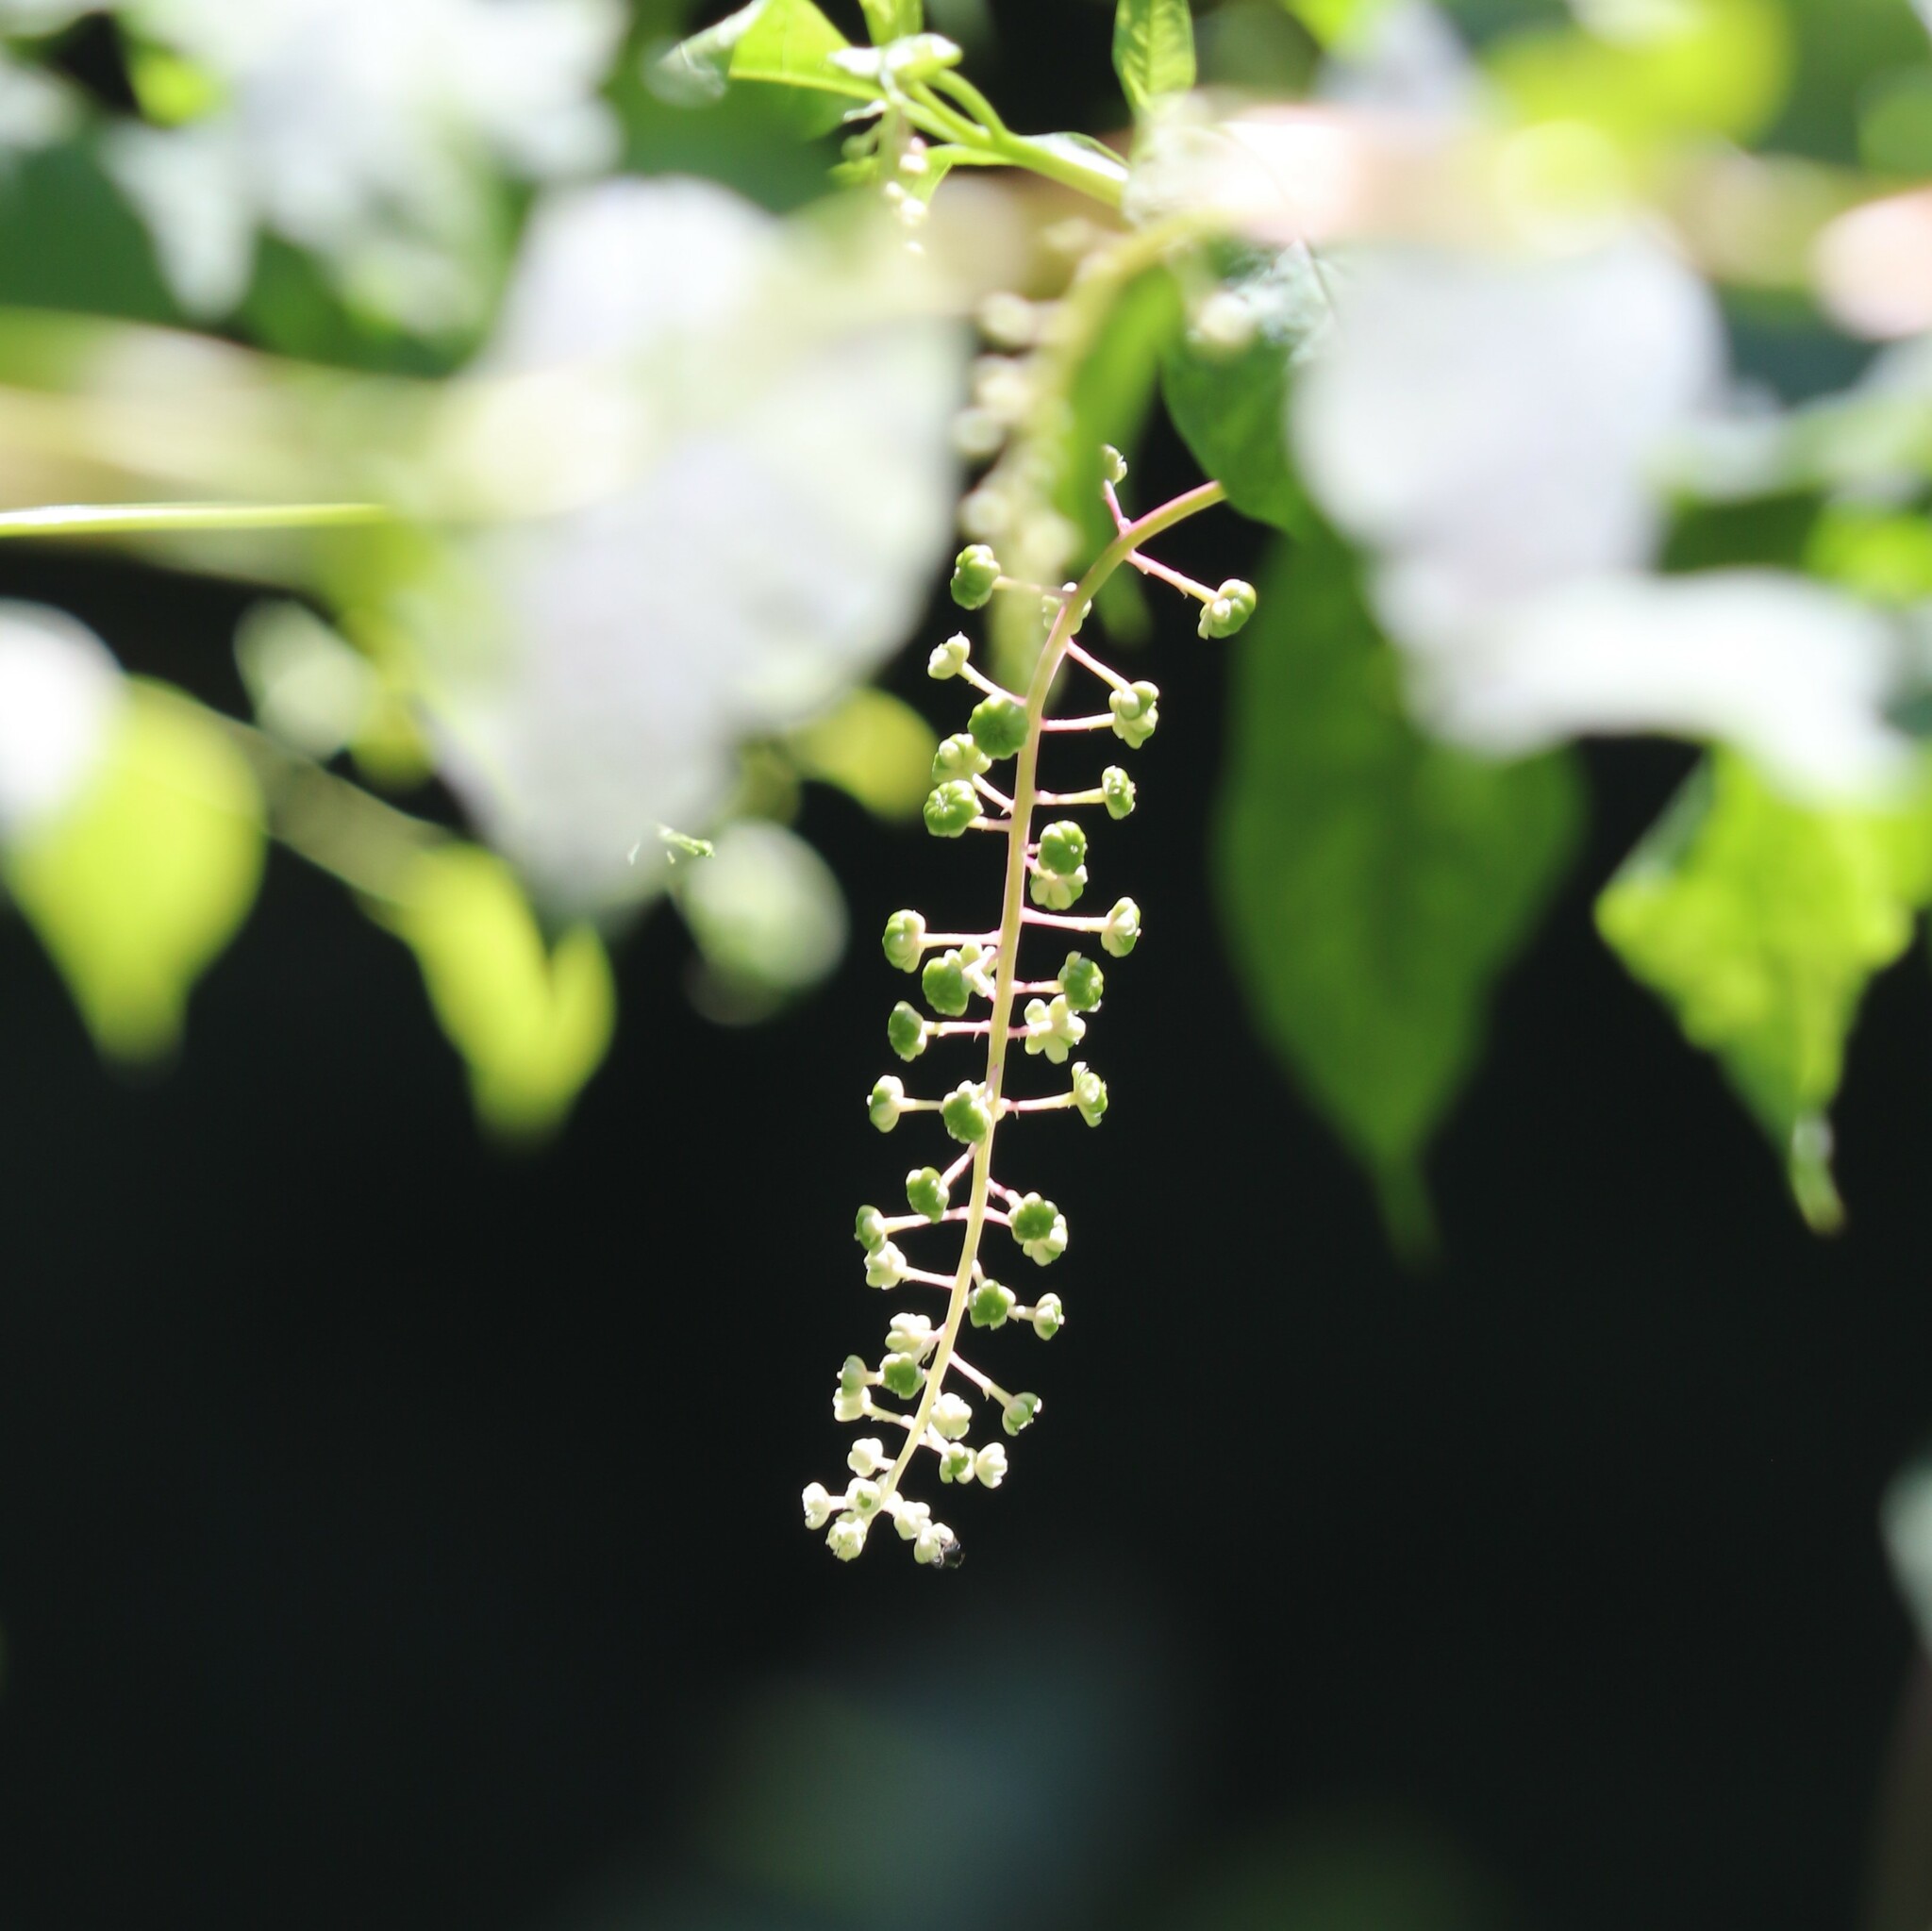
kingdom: Plantae
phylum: Tracheophyta
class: Magnoliopsida
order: Caryophyllales
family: Phytolaccaceae
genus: Phytolacca
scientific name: Phytolacca americana
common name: American pokeweed
